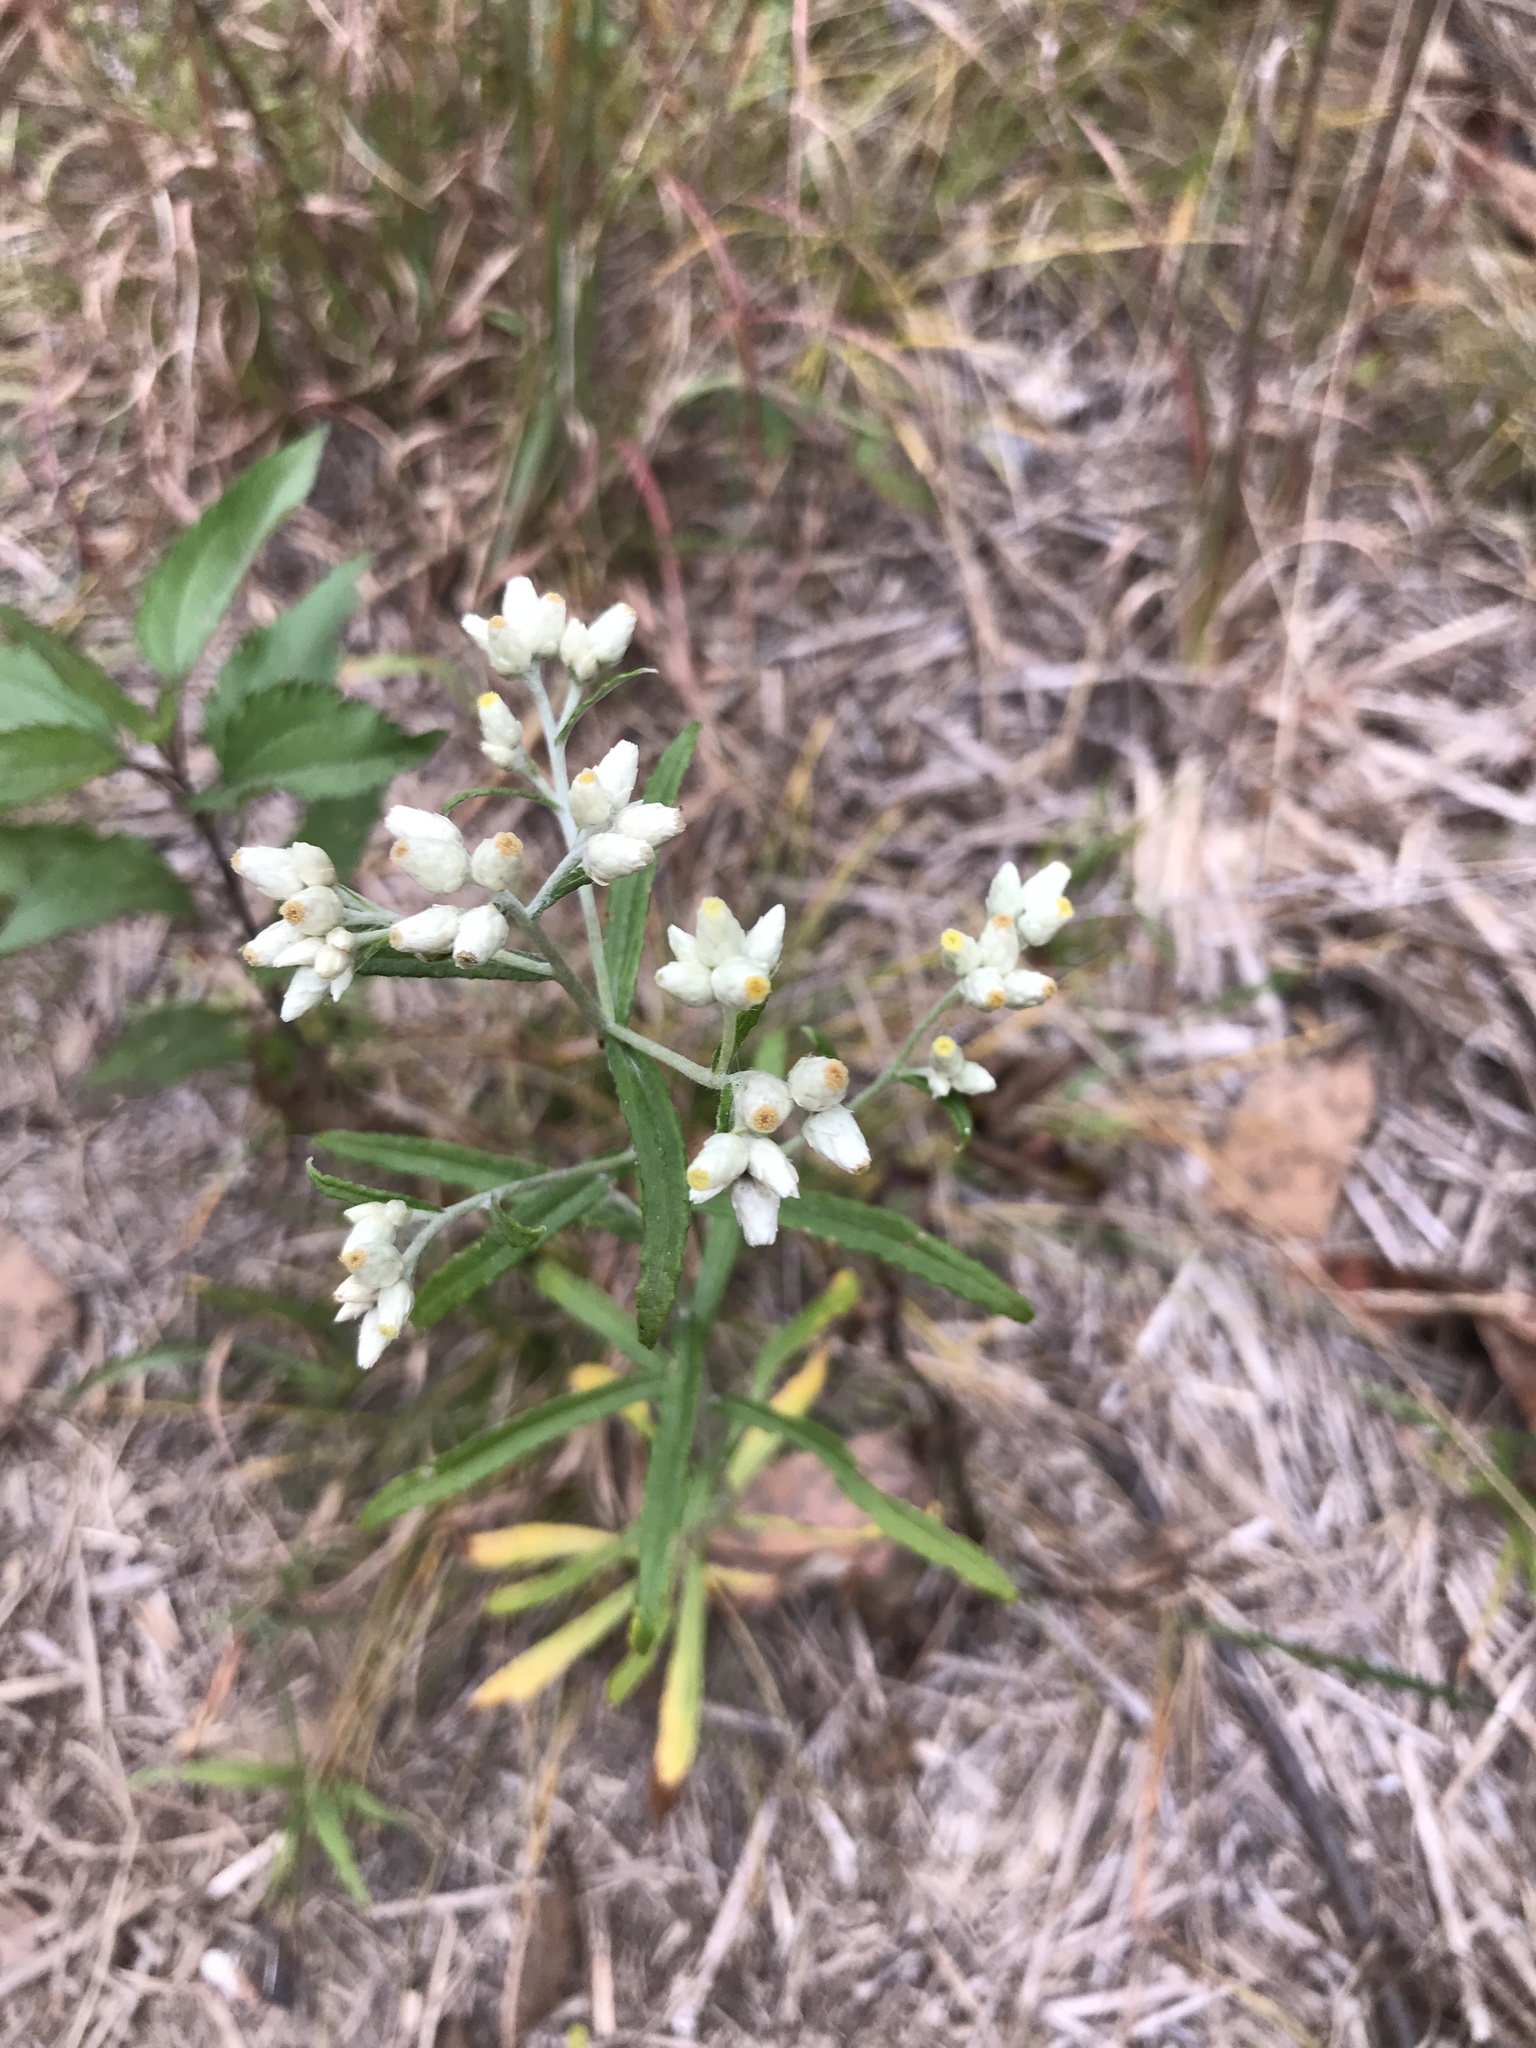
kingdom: Plantae
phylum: Tracheophyta
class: Magnoliopsida
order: Asterales
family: Asteraceae
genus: Pseudognaphalium
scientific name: Pseudognaphalium obtusifolium
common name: Eastern rabbit-tobacco
